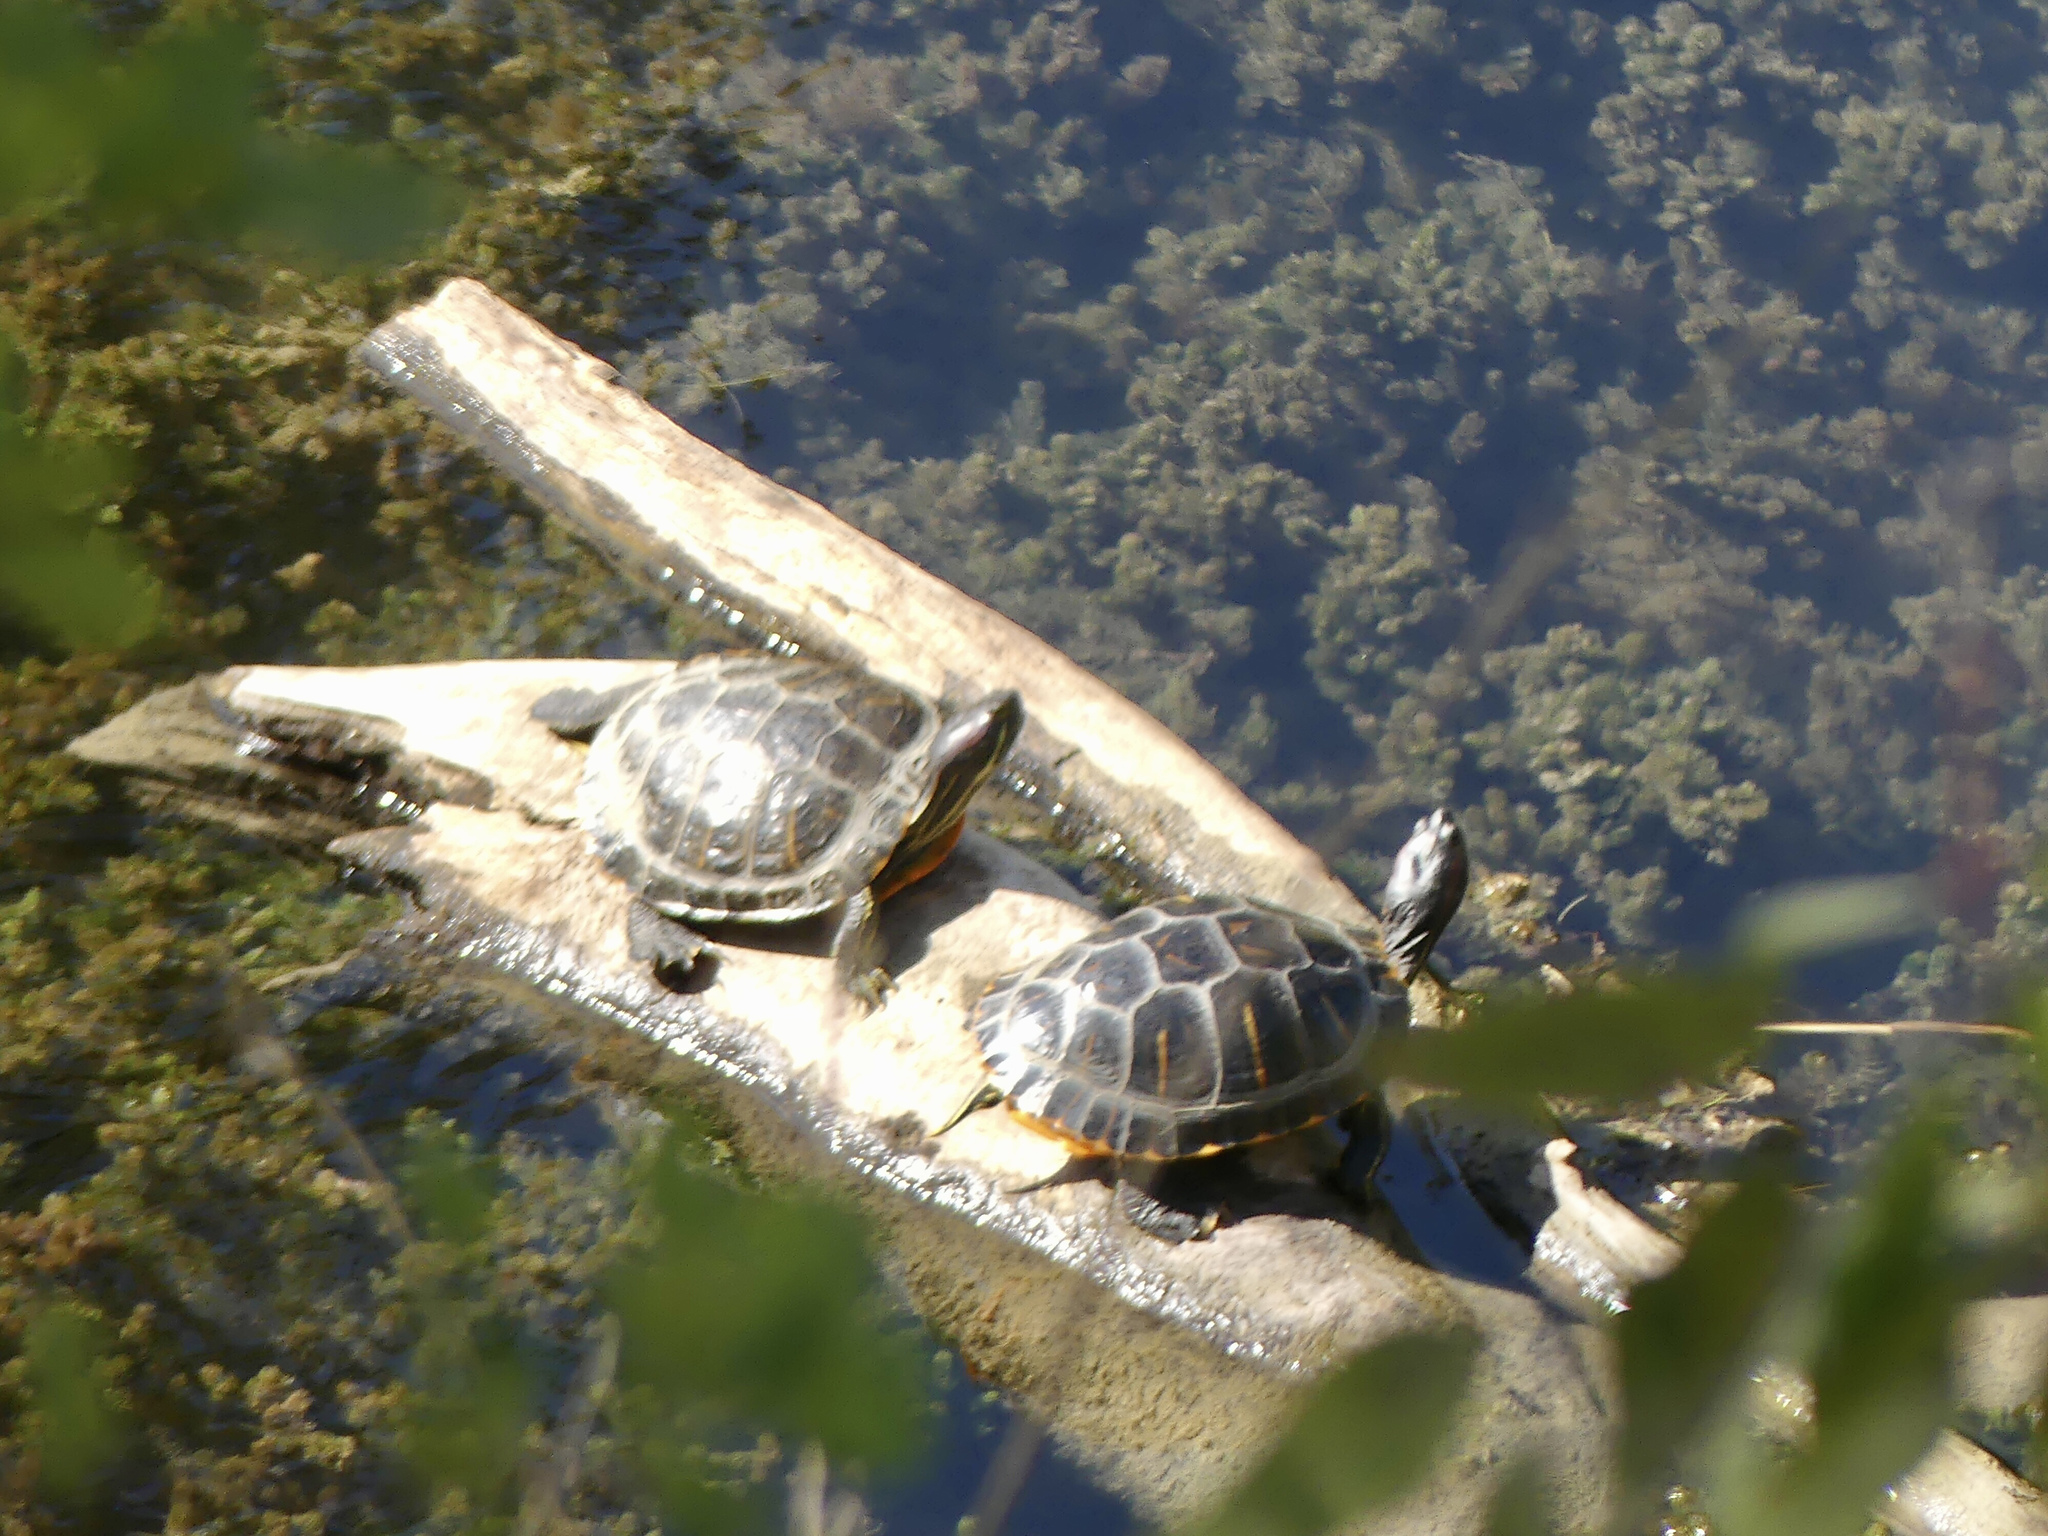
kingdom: Animalia
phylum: Chordata
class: Testudines
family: Emydidae
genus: Trachemys
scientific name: Trachemys scripta
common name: Slider
